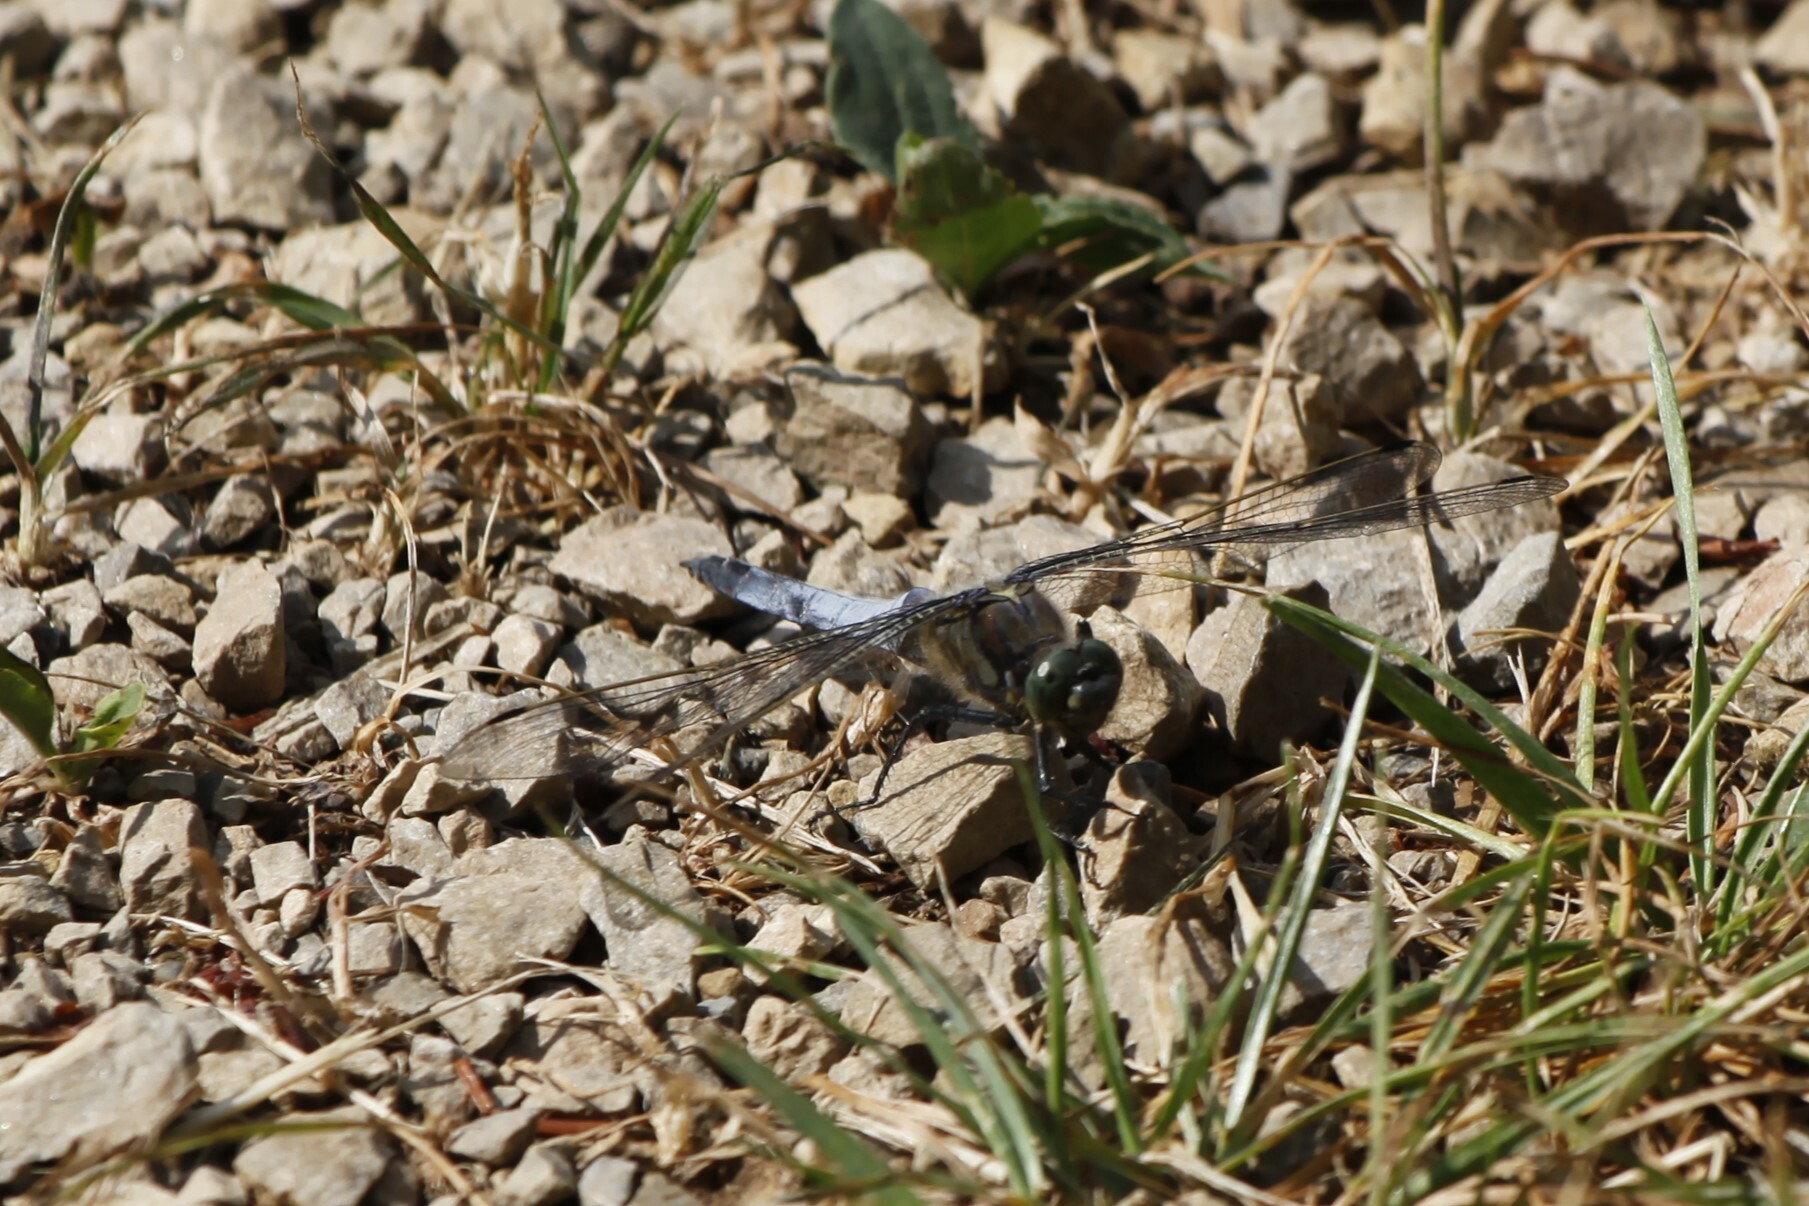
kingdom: Animalia
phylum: Arthropoda
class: Insecta
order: Odonata
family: Libellulidae
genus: Orthetrum
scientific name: Orthetrum cancellatum
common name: Black-tailed skimmer
